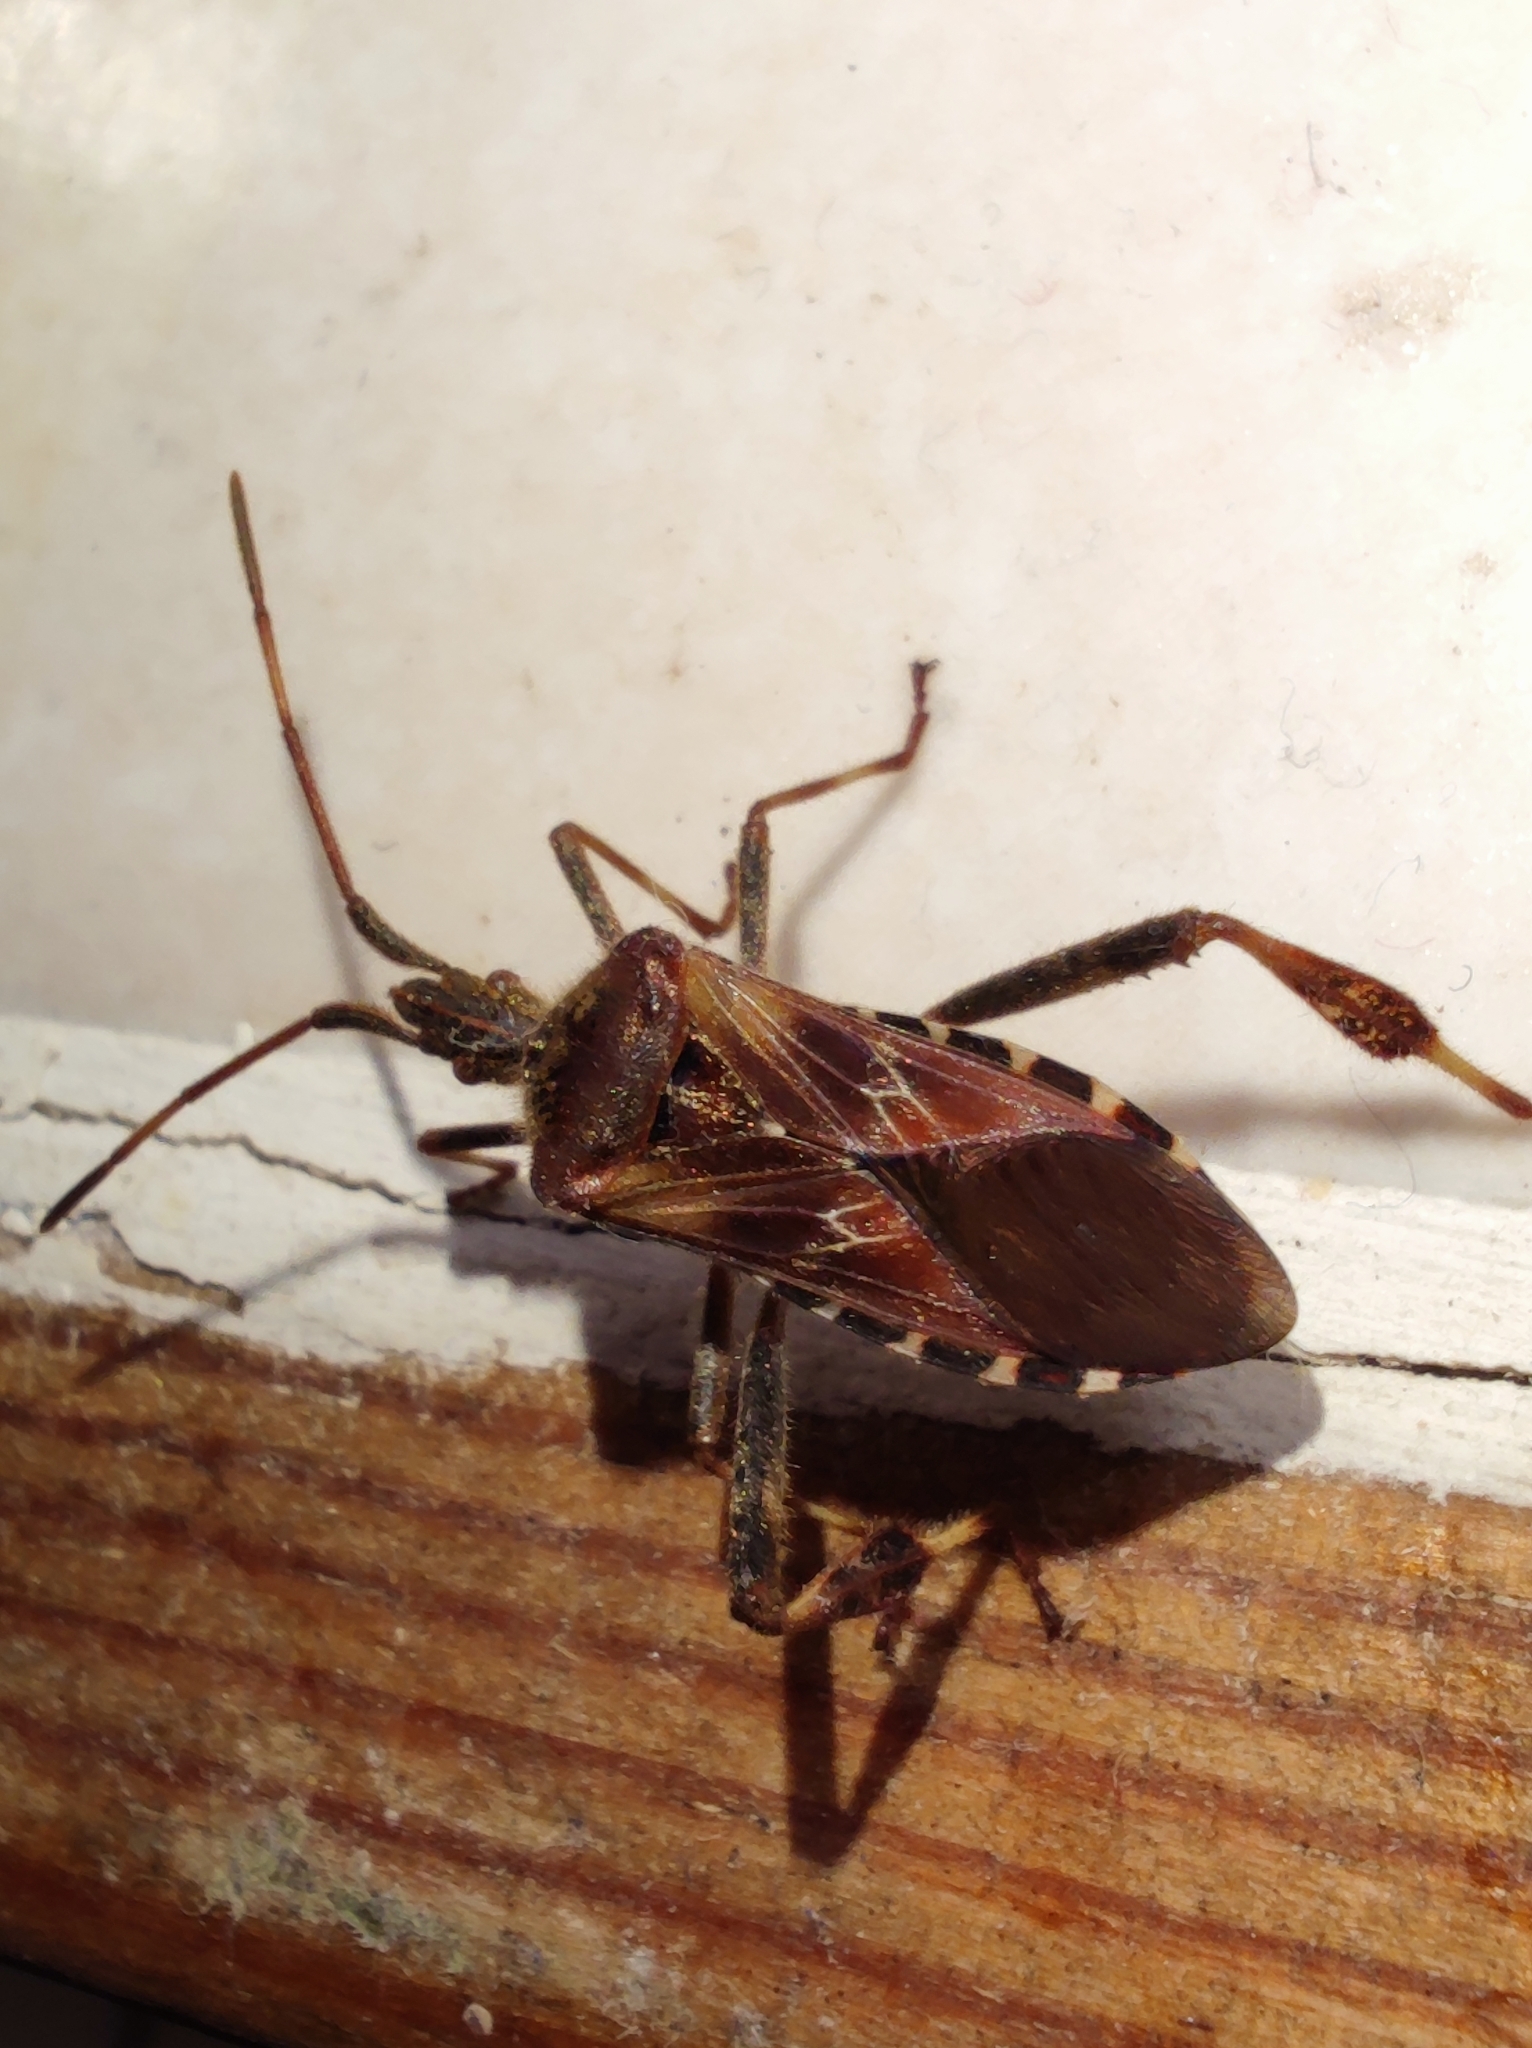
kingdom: Animalia
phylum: Arthropoda
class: Insecta
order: Hemiptera
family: Coreidae
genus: Leptoglossus
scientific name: Leptoglossus occidentalis
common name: Western conifer-seed bug
